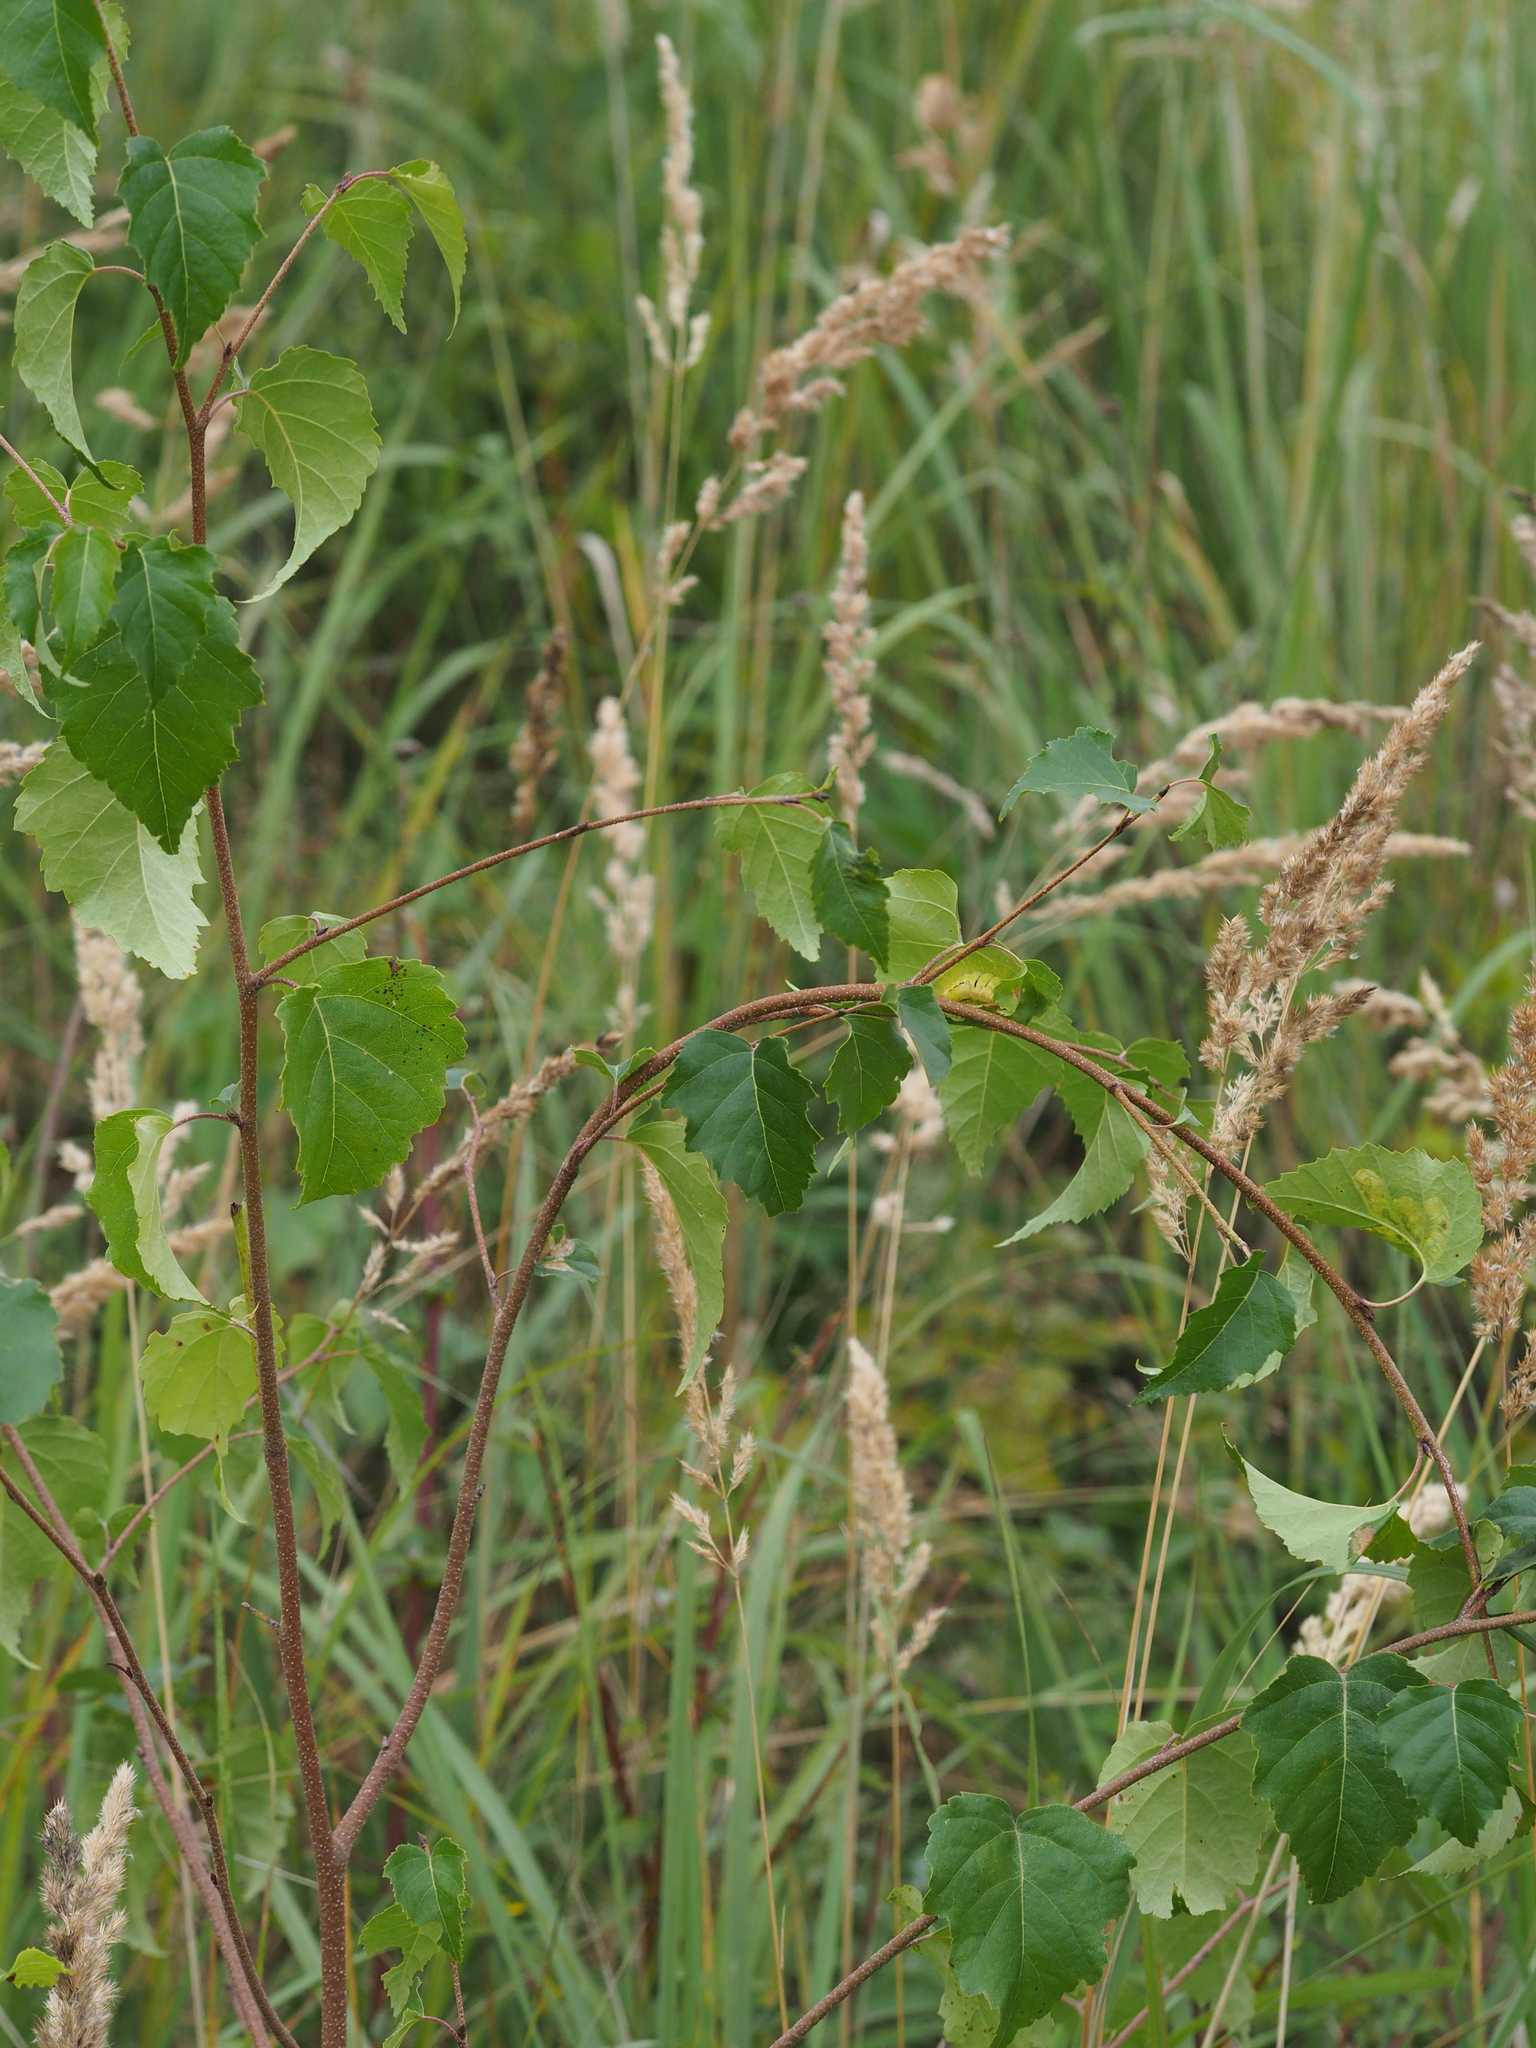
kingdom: Animalia
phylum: Arthropoda
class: Insecta
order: Lepidoptera
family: Erebidae
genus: Calliteara
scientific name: Calliteara pudibunda
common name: Pale tussock
